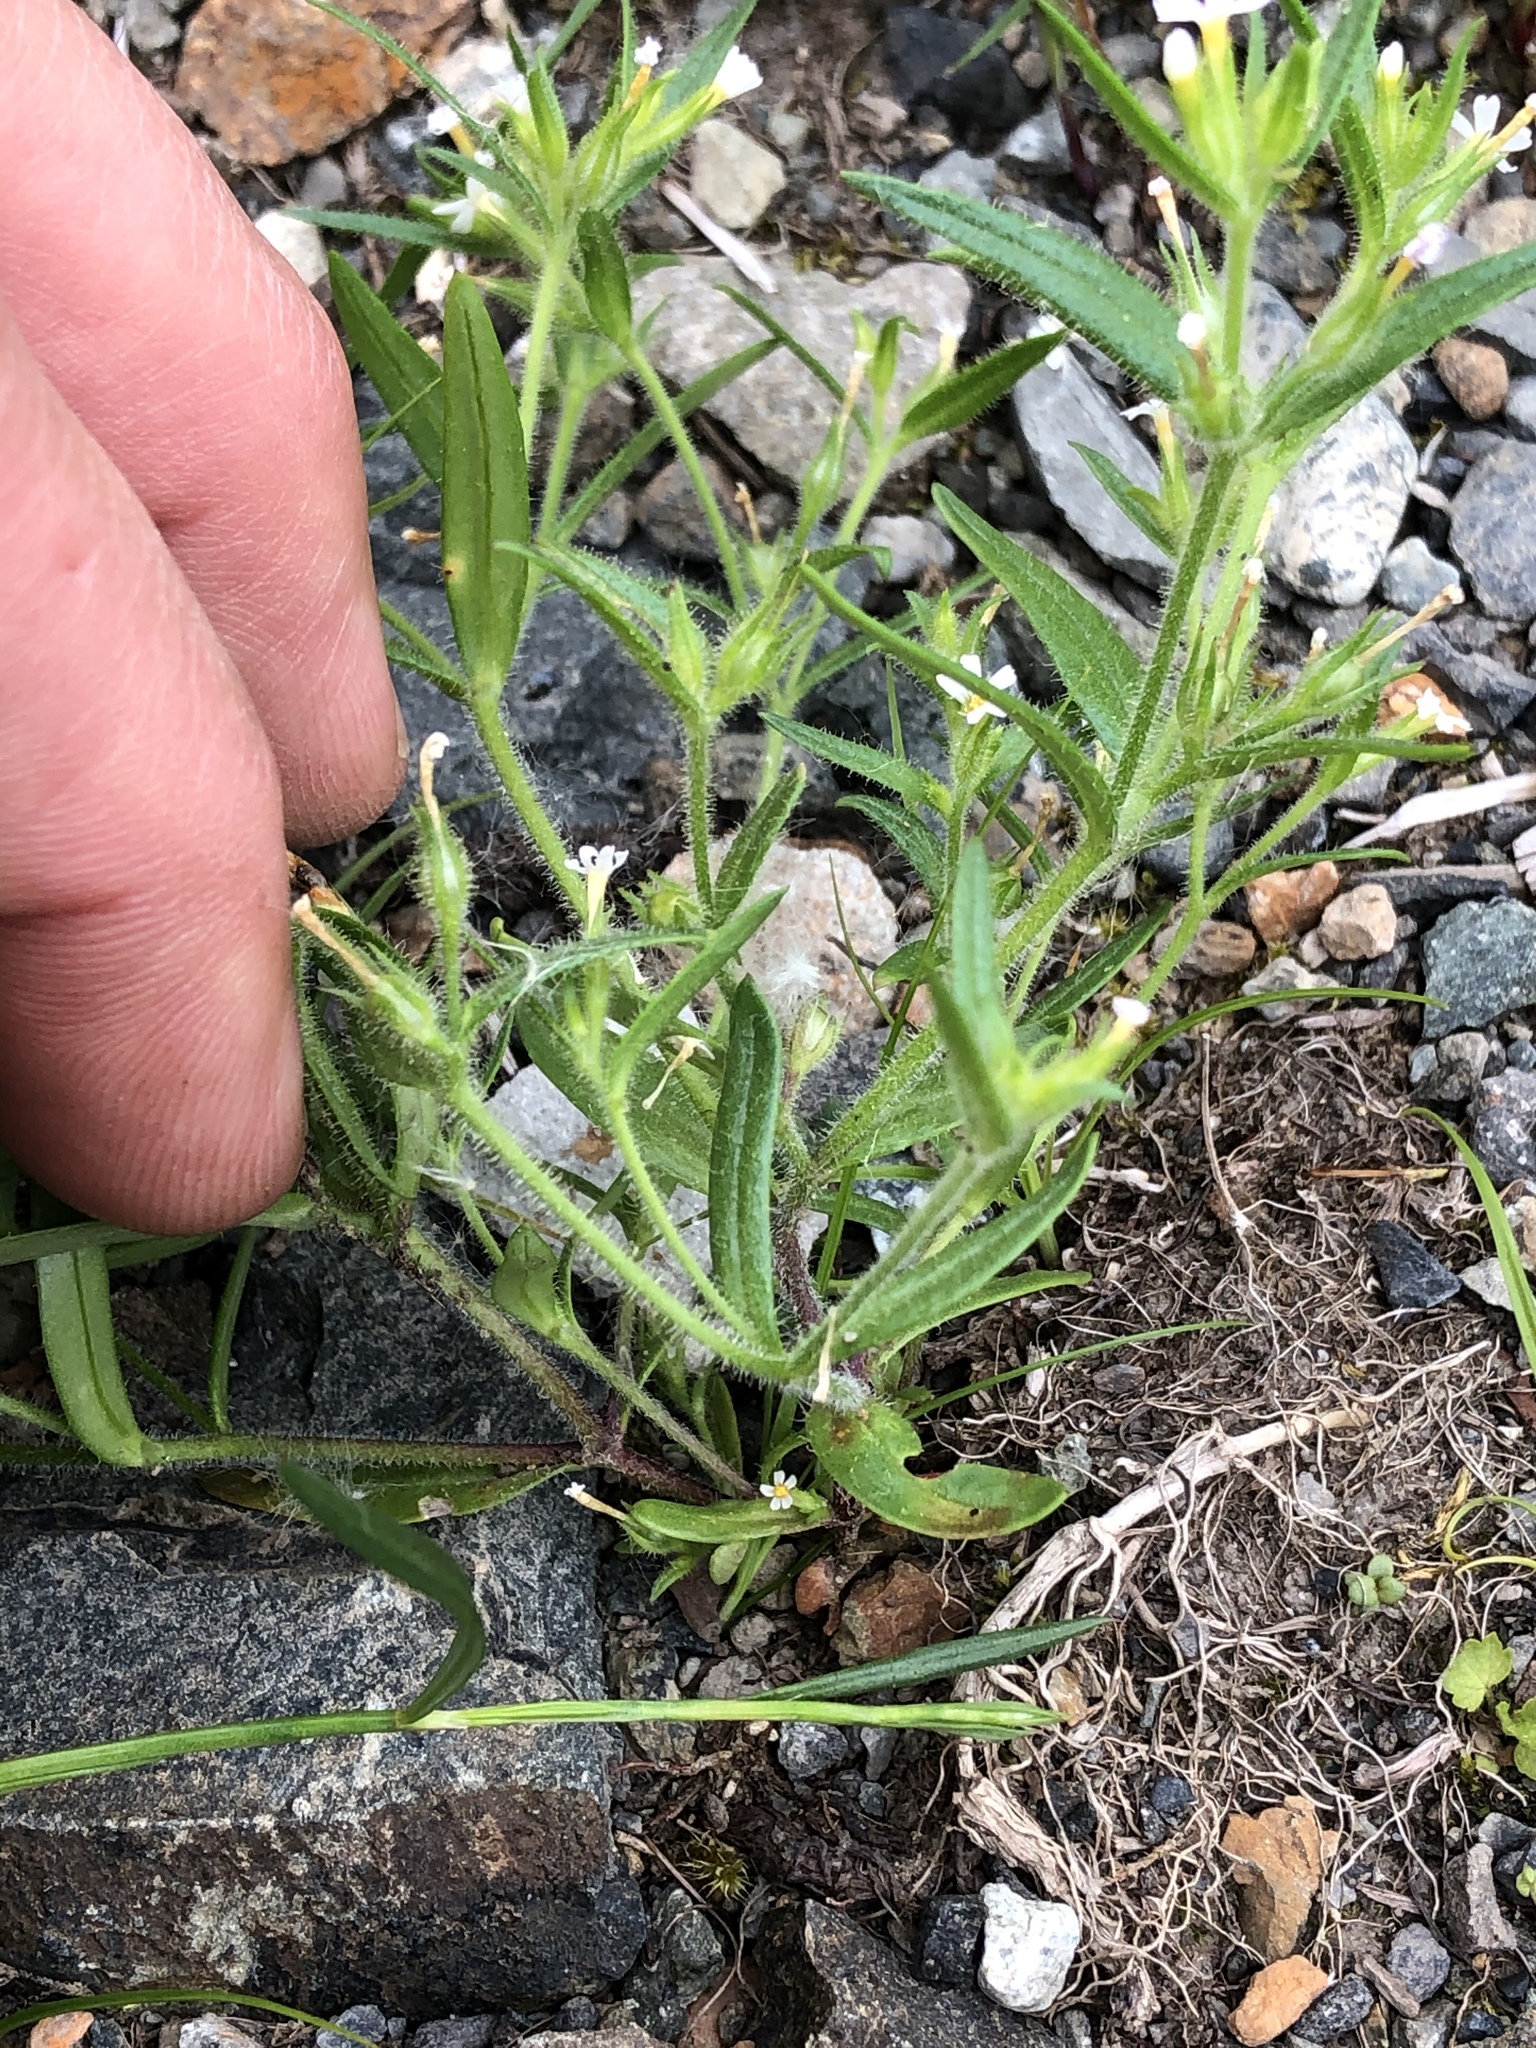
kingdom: Plantae
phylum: Tracheophyta
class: Magnoliopsida
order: Ericales
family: Polemoniaceae
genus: Phlox
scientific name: Phlox gracilis
